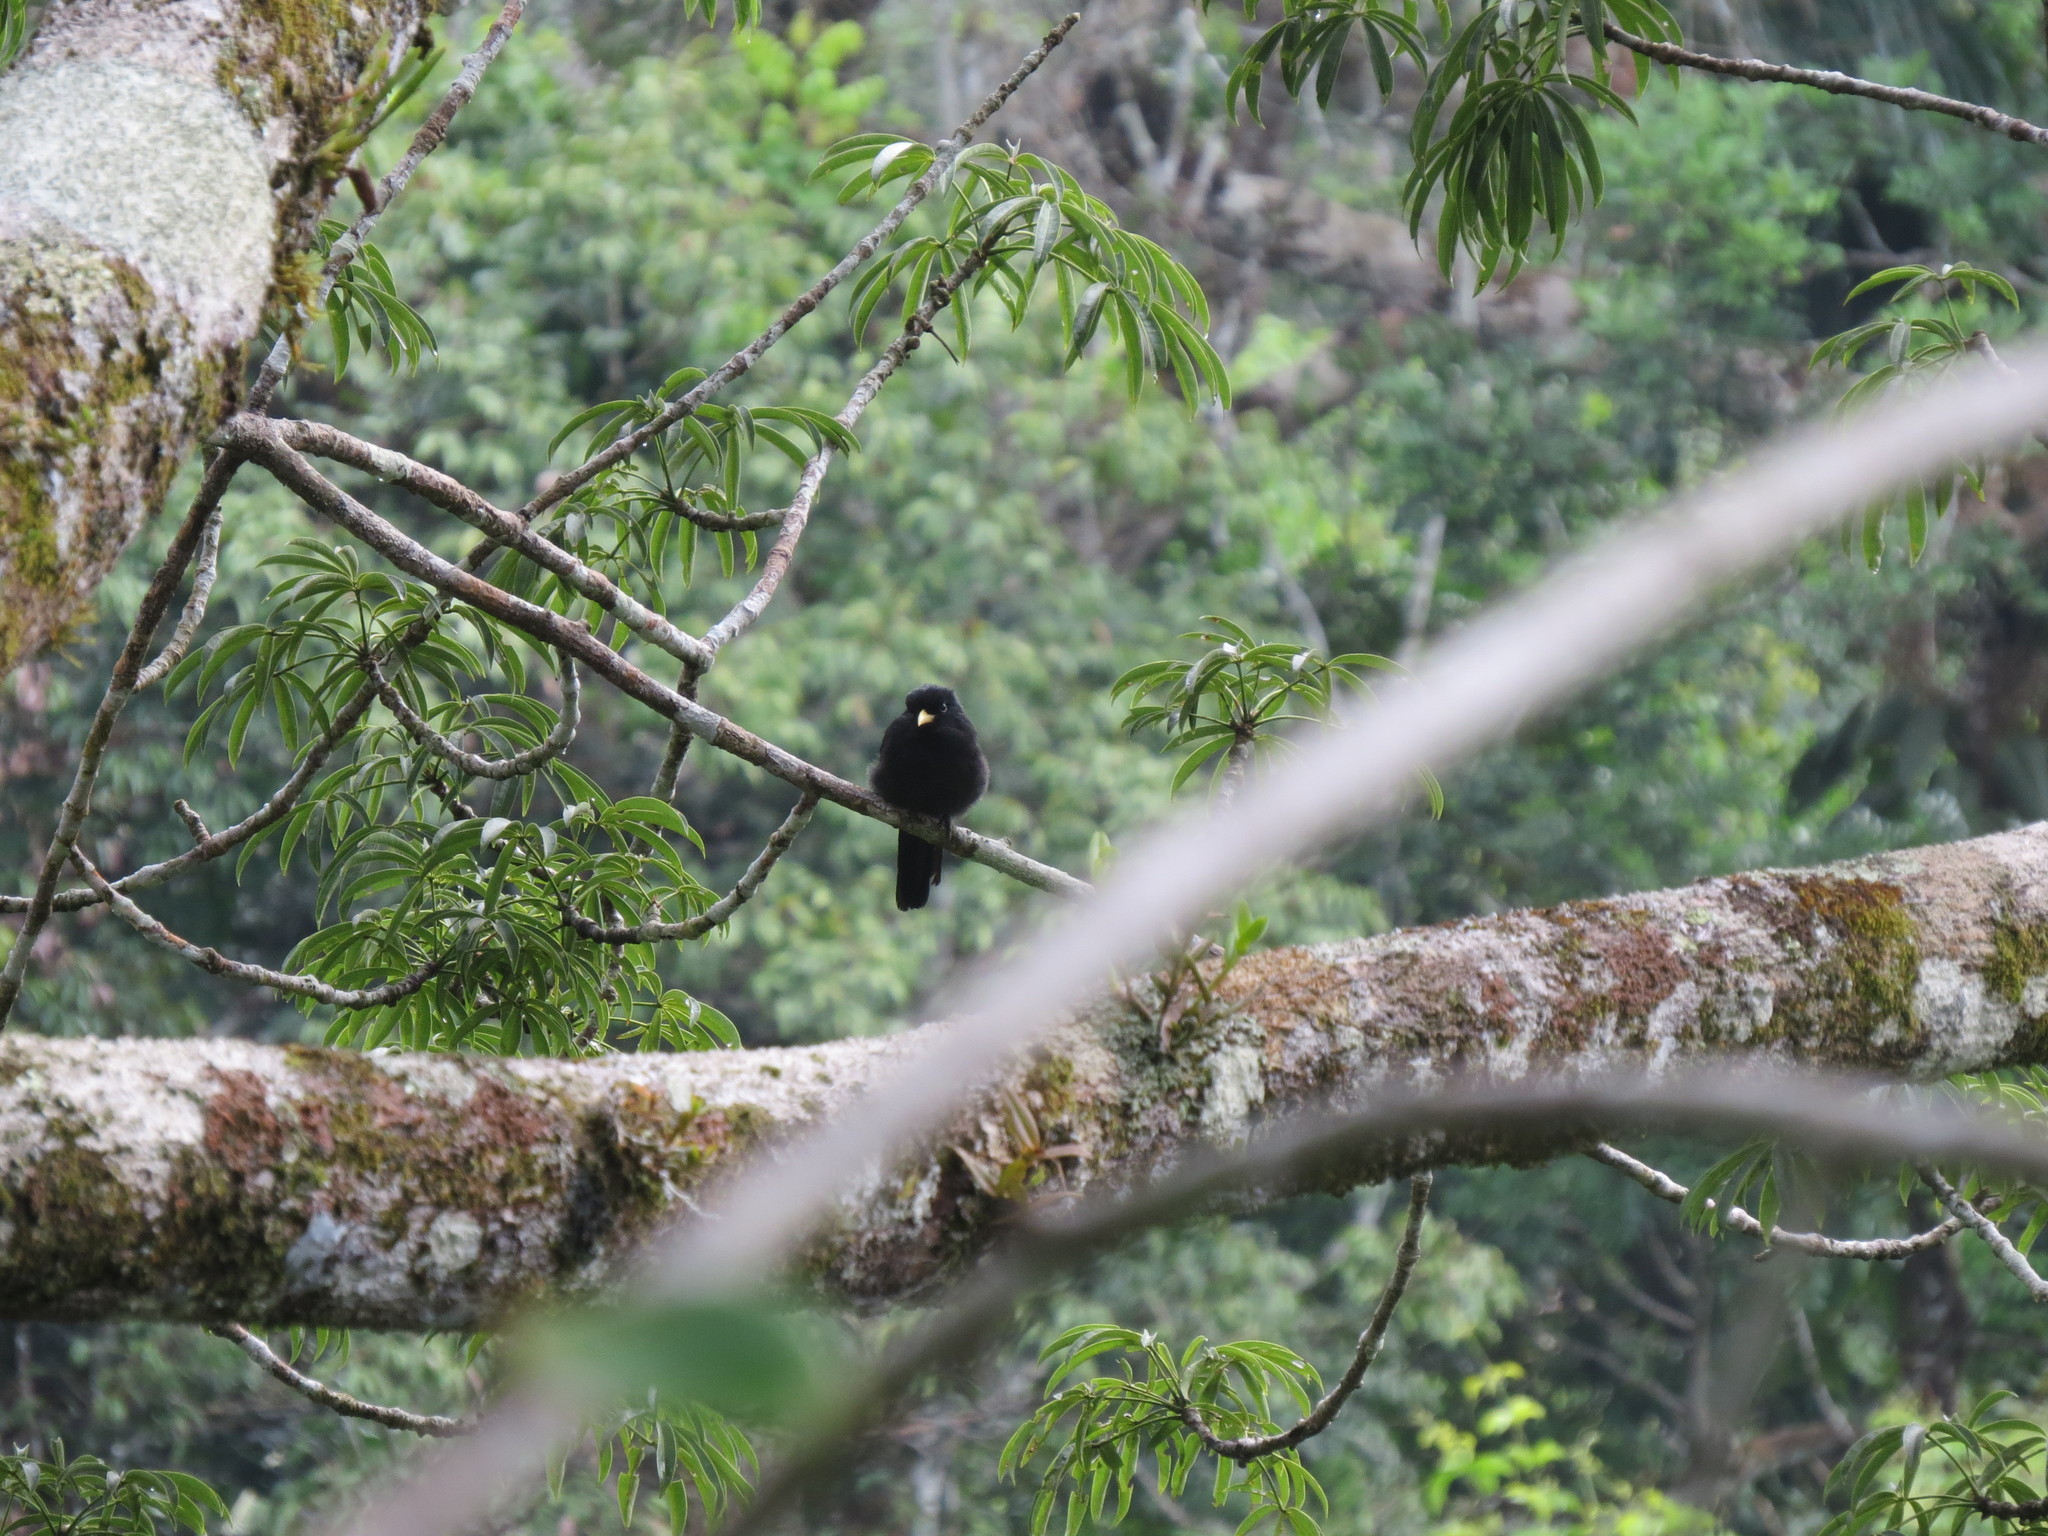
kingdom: Animalia
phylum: Chordata
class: Aves
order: Piciformes
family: Bucconidae
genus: Monasa
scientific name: Monasa nigrifrons
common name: Black-fronted nunbird
